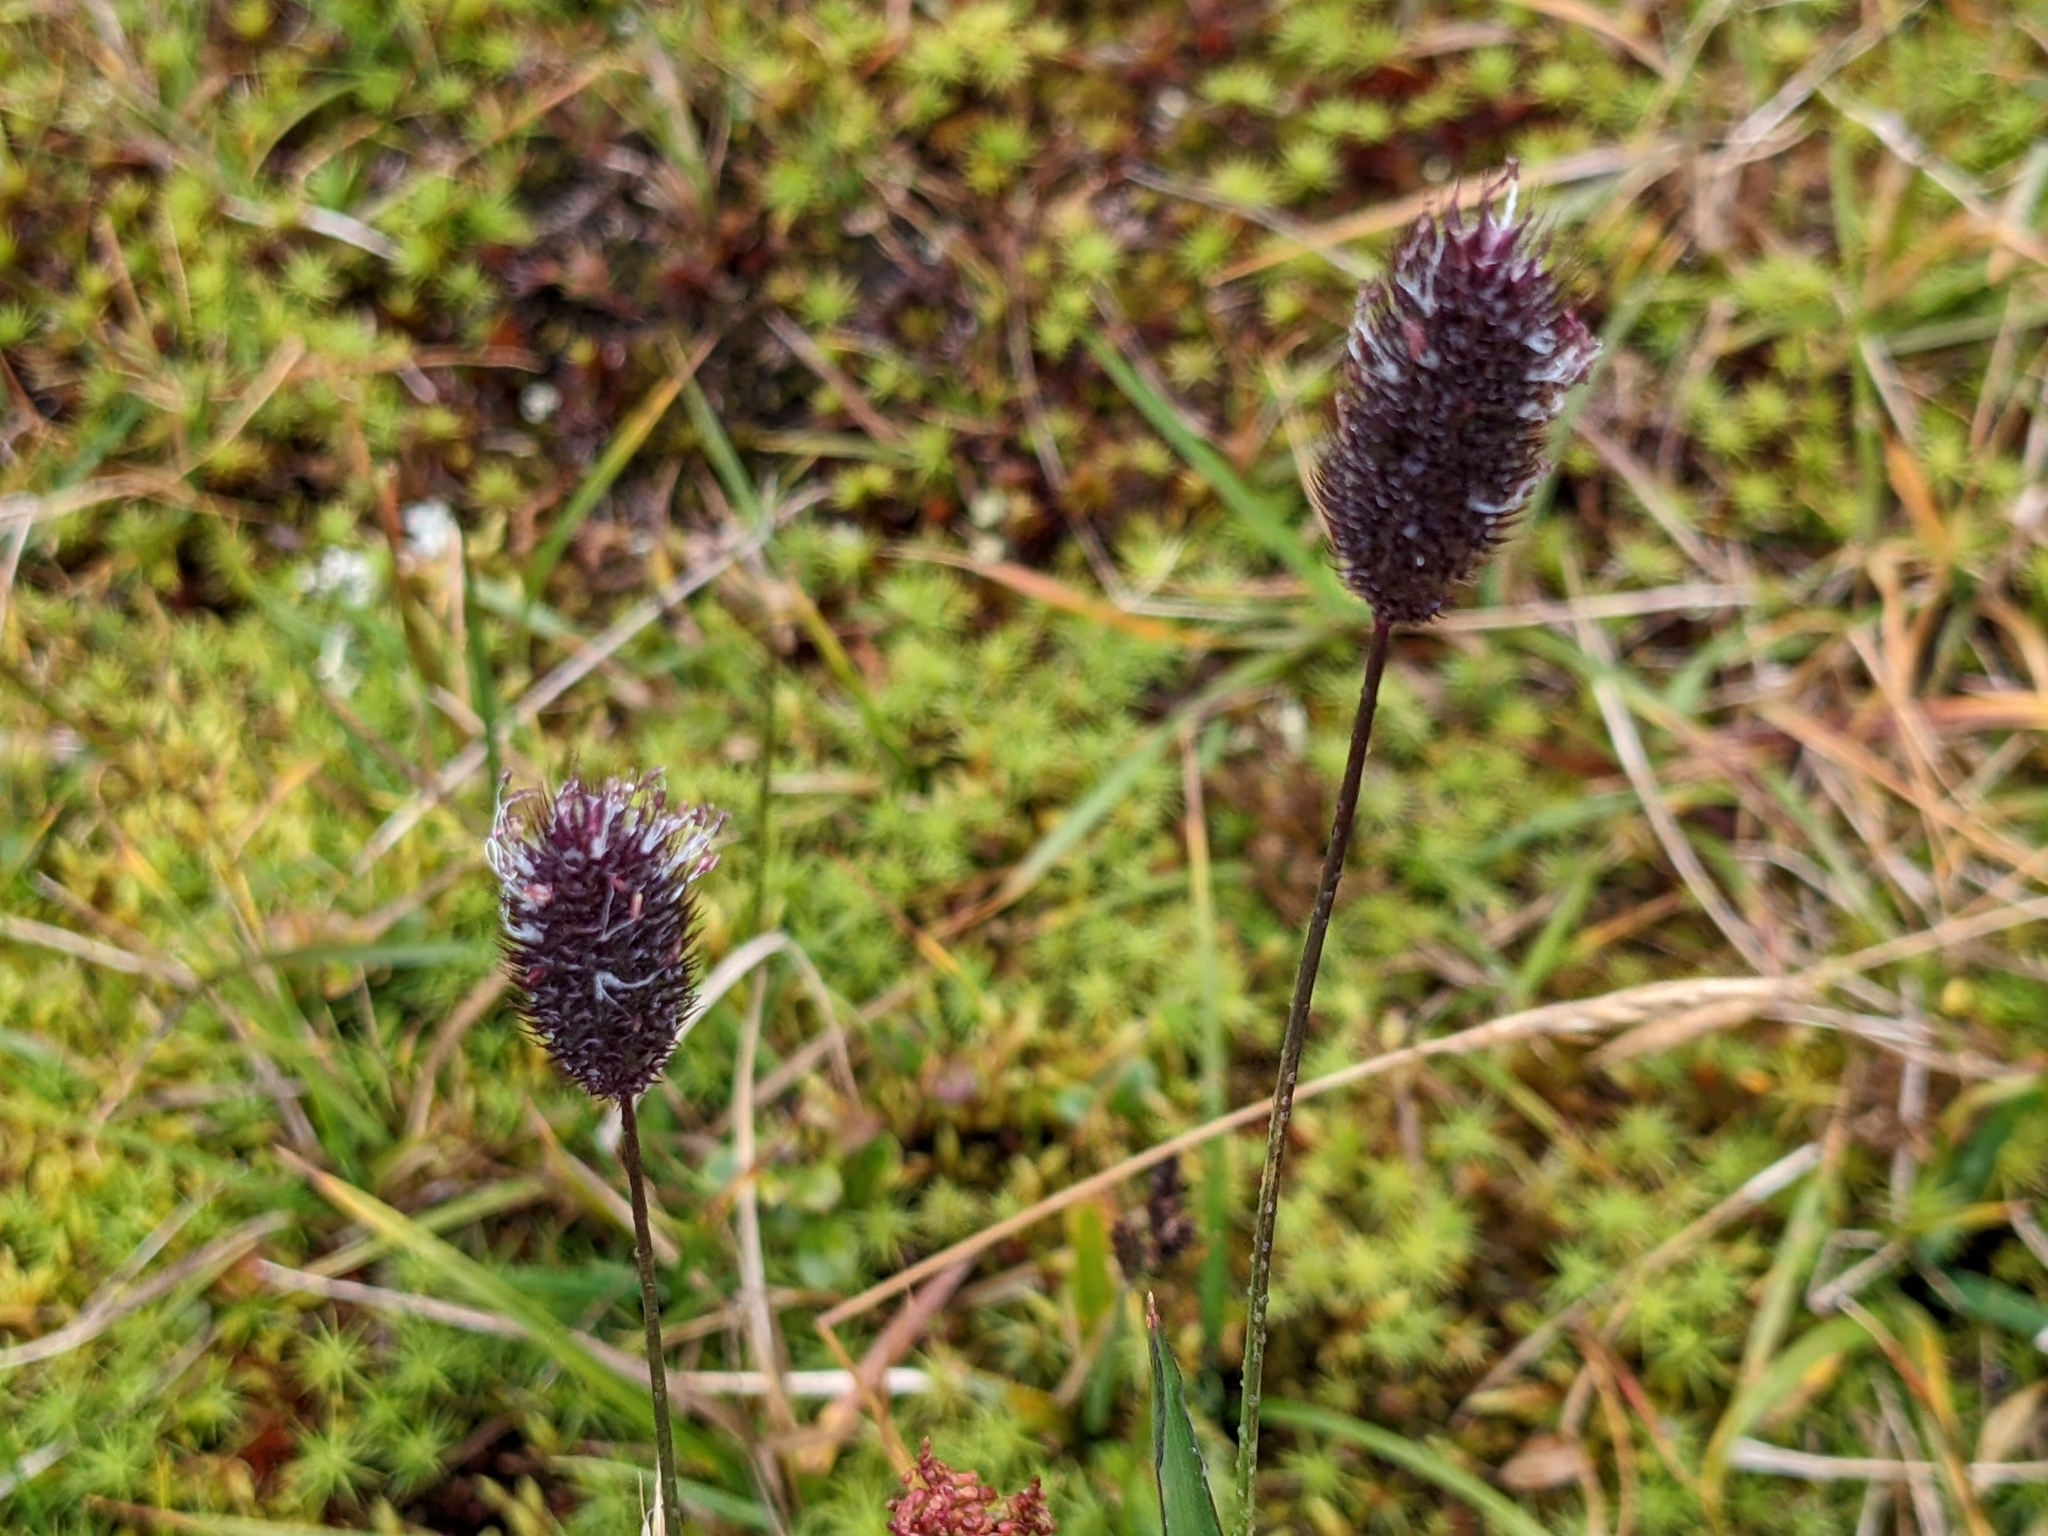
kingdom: Plantae
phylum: Tracheophyta
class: Liliopsida
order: Poales
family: Poaceae
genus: Phleum
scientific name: Phleum alpinum
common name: Alpine cat's-tail
